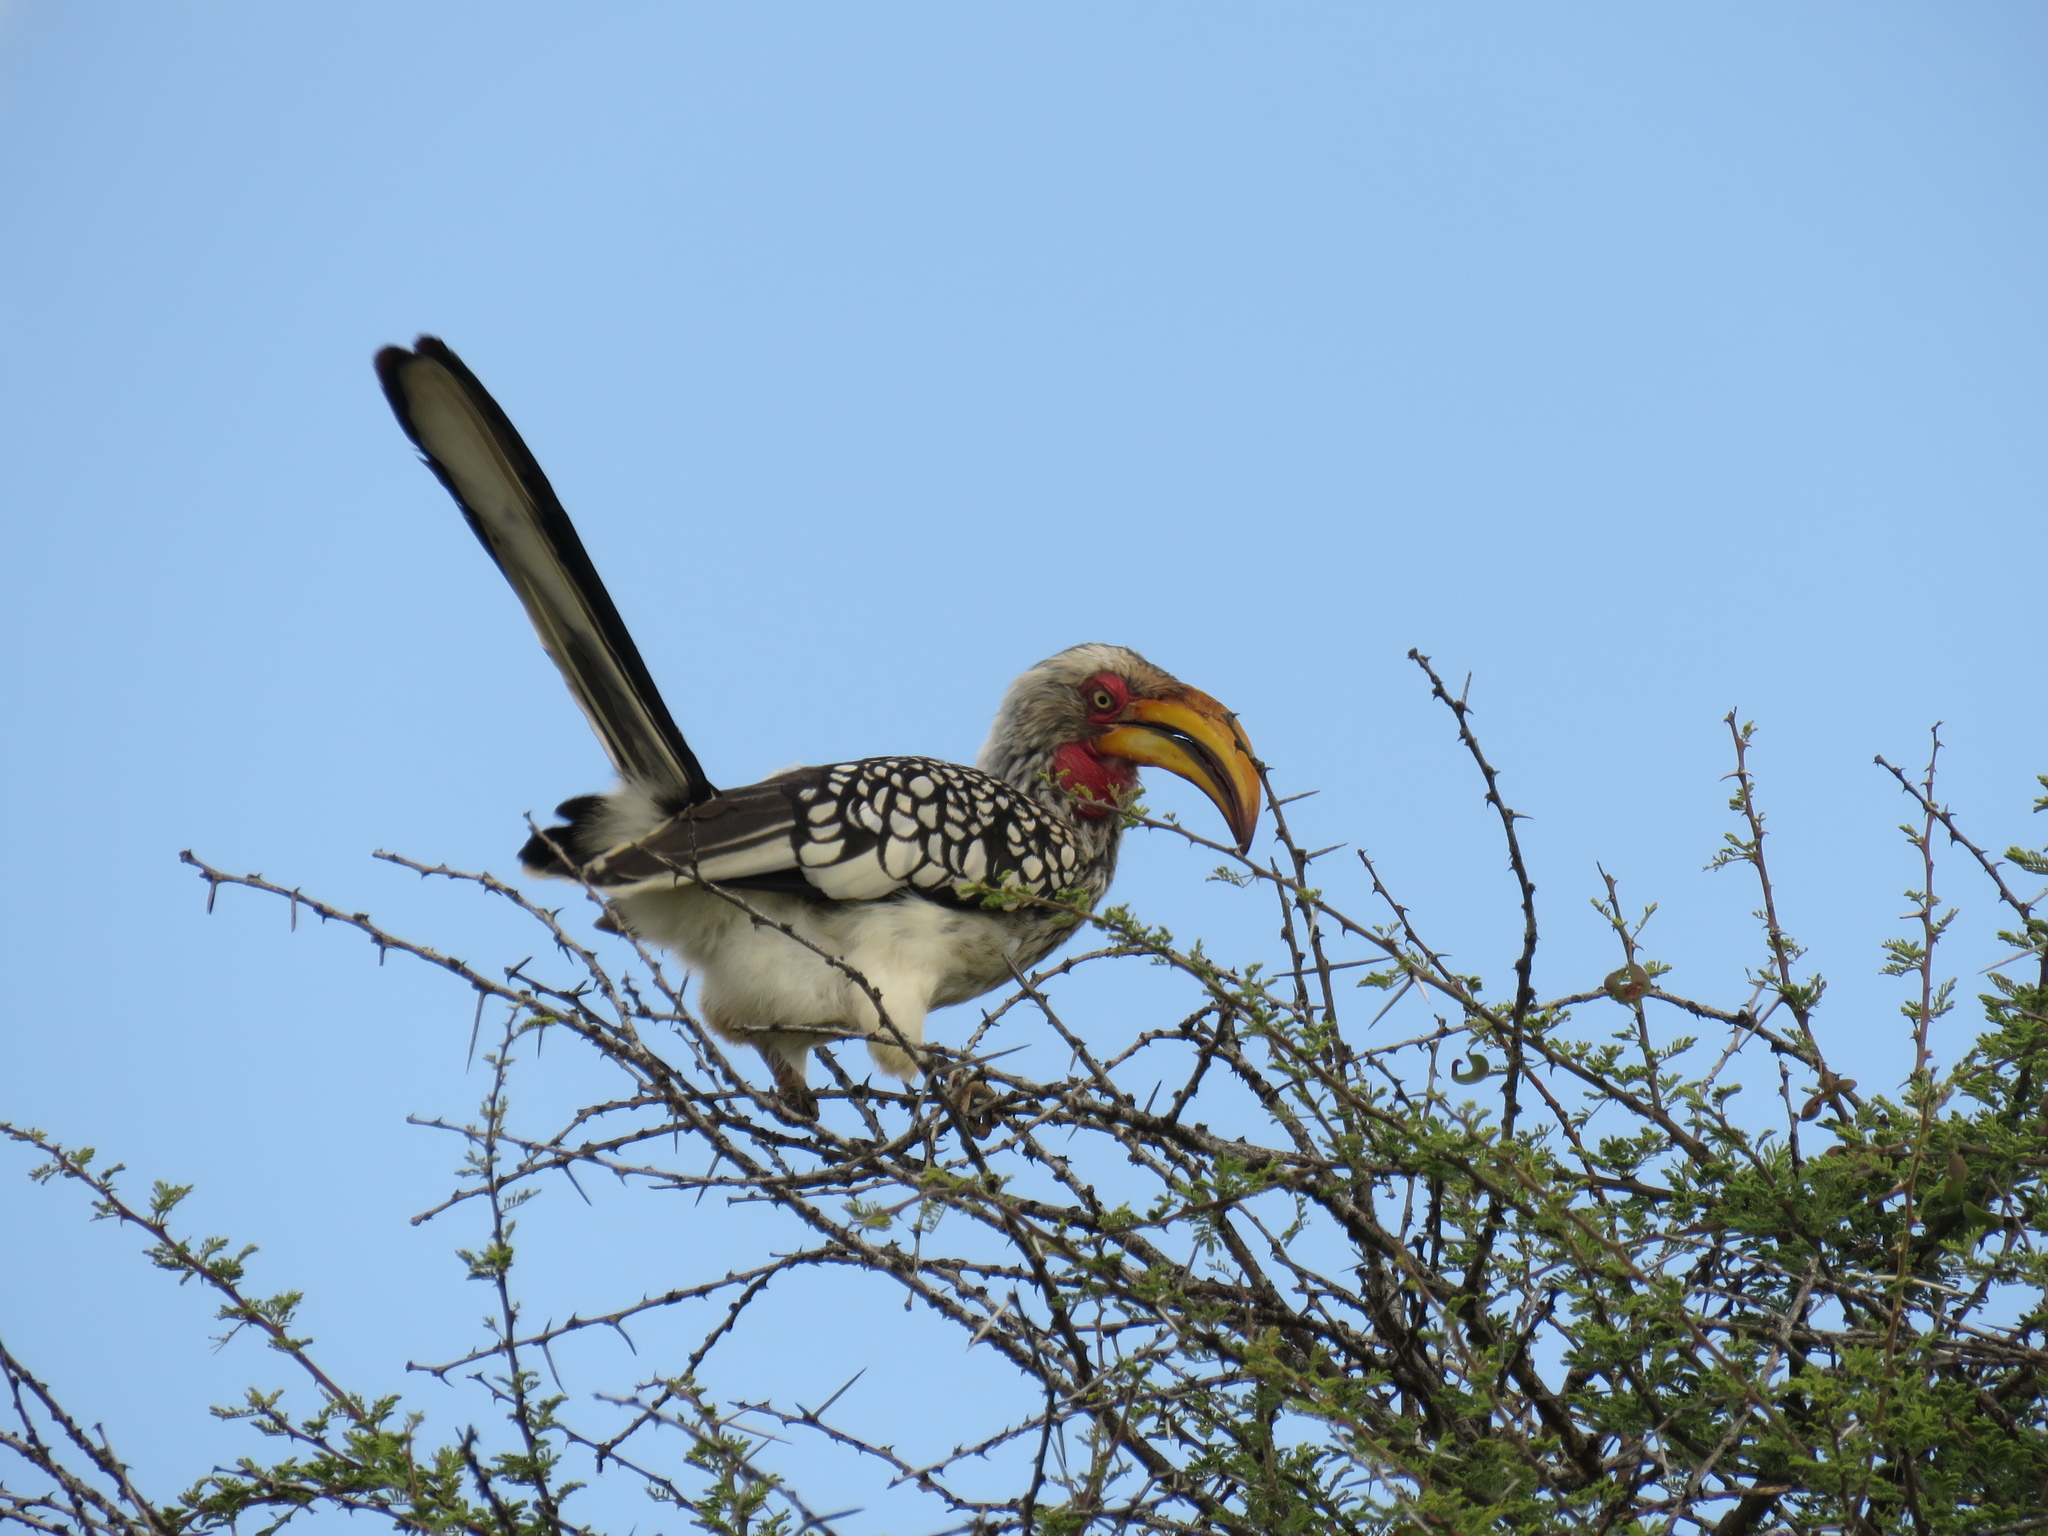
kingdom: Animalia
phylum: Chordata
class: Aves
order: Bucerotiformes
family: Bucerotidae
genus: Tockus
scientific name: Tockus leucomelas
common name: Southern yellow-billed hornbill
